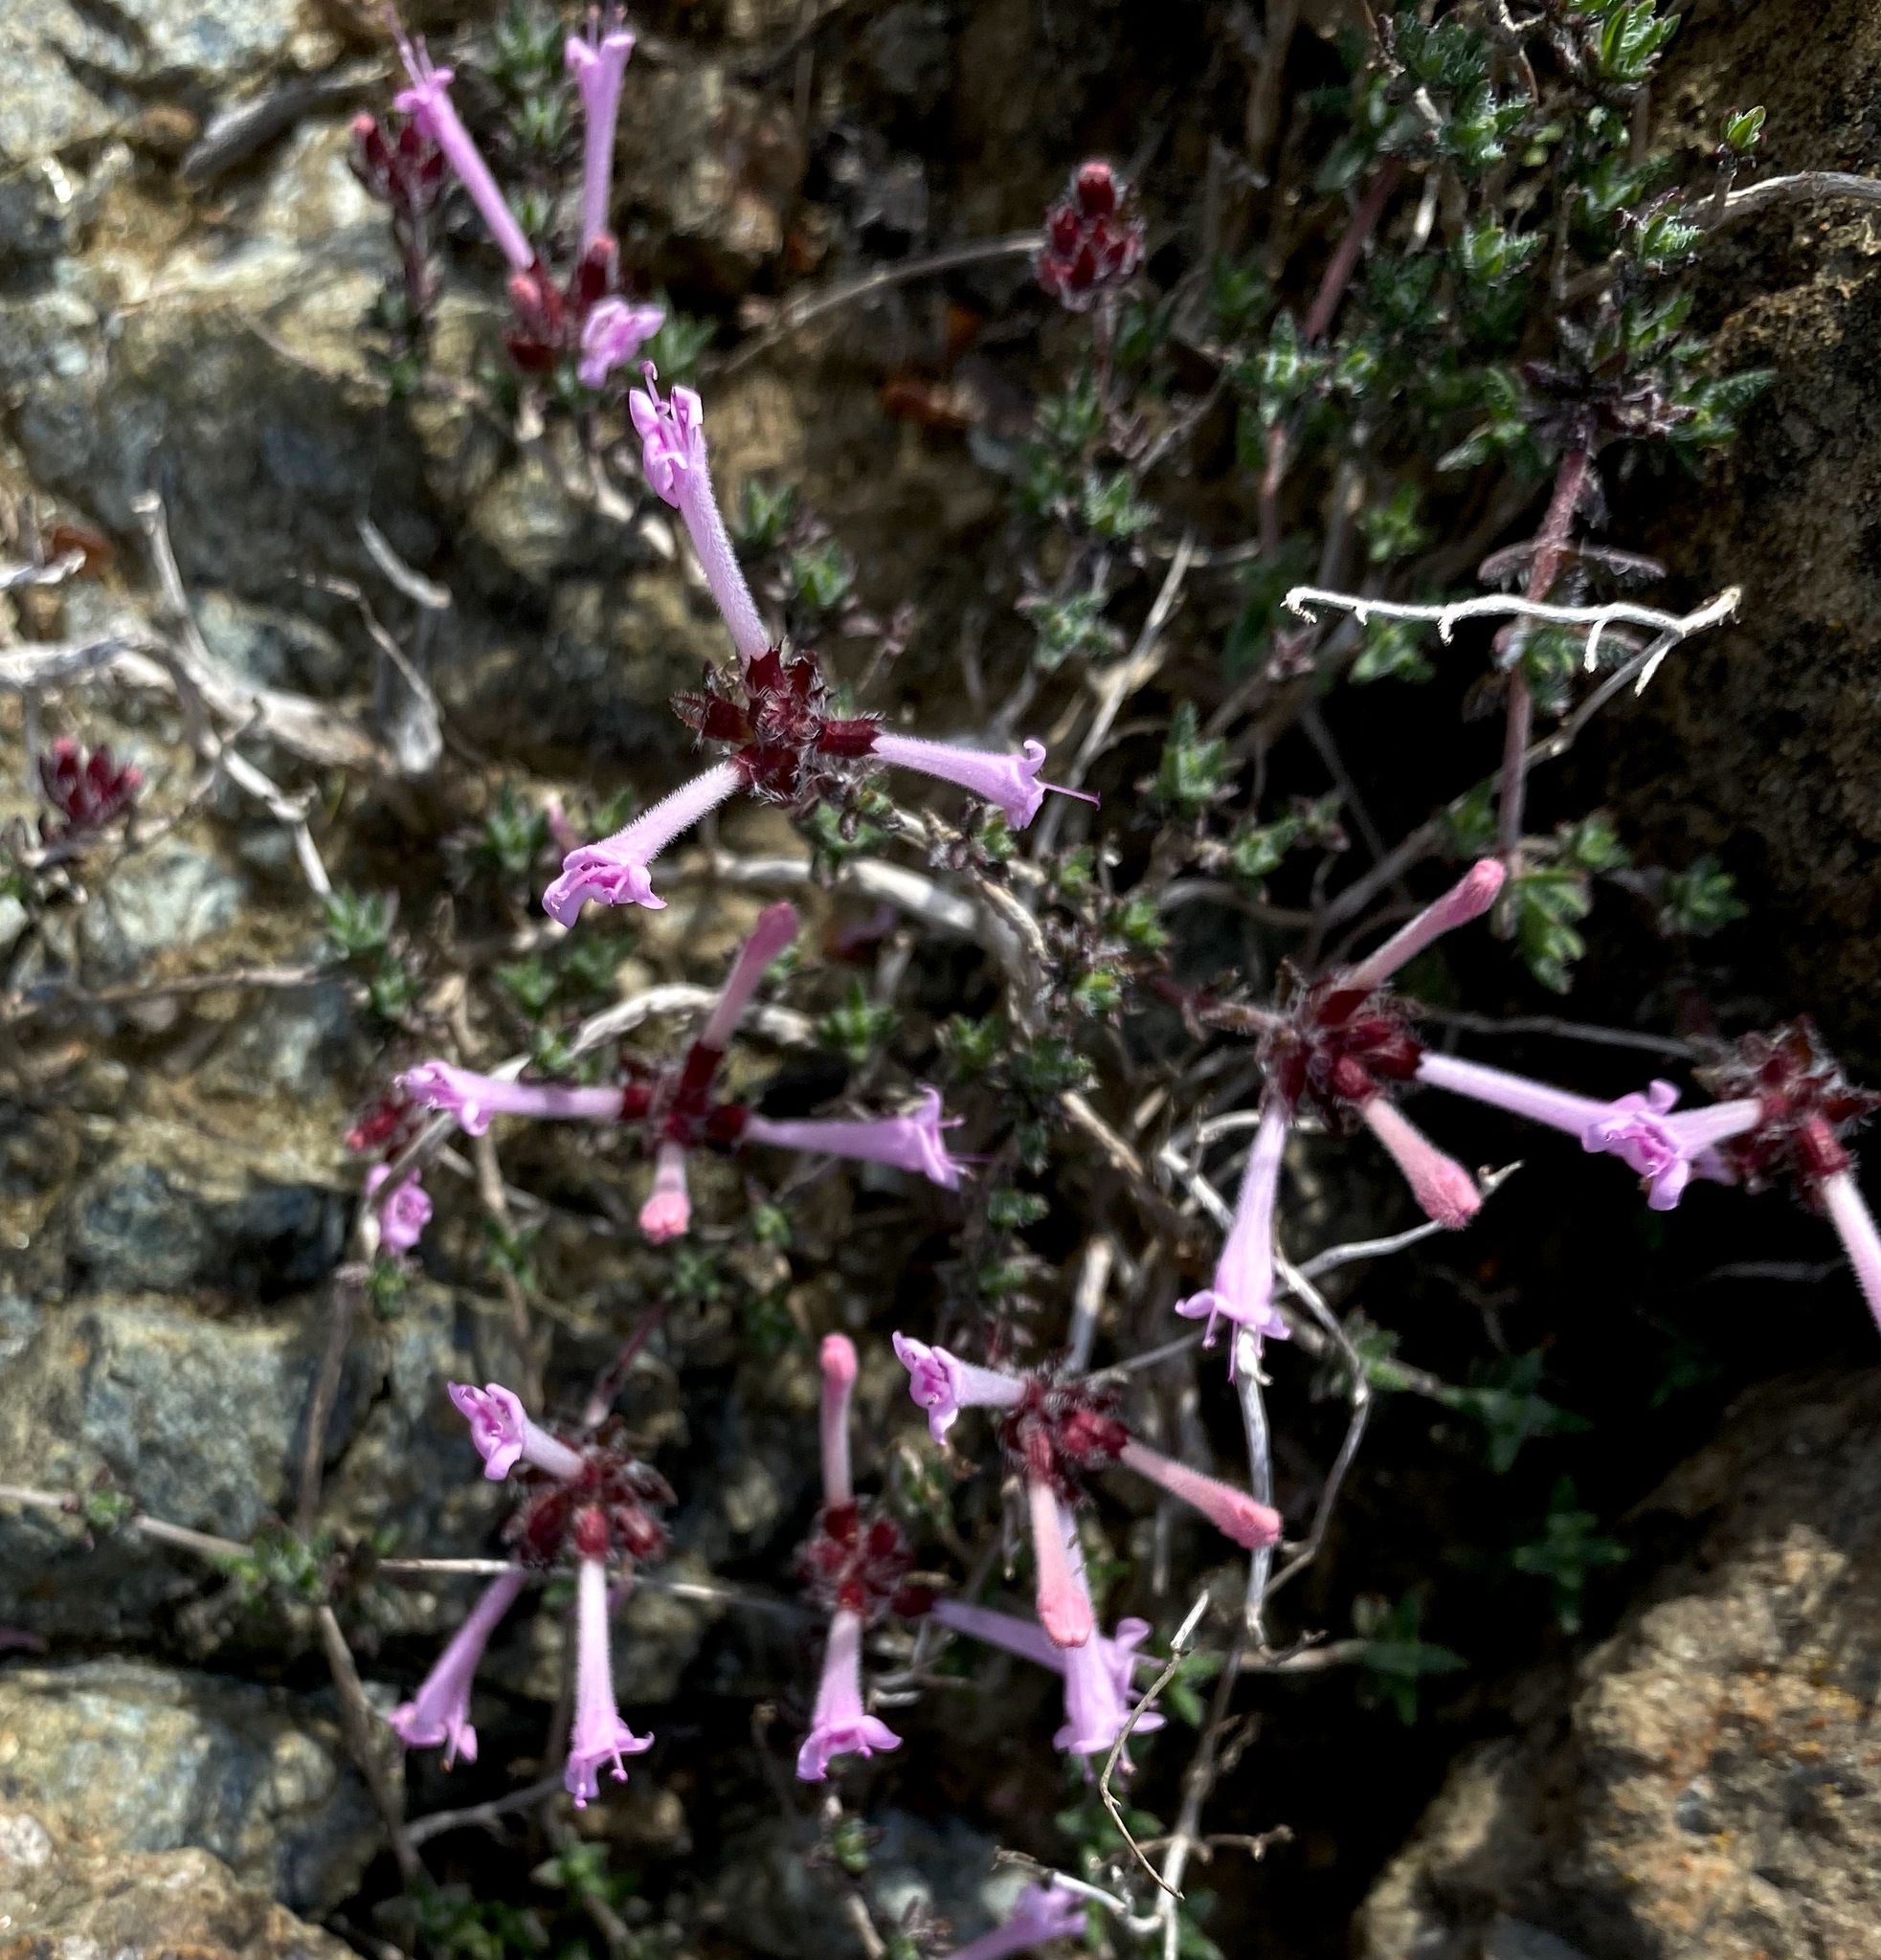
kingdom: Plantae
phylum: Tracheophyta
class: Magnoliopsida
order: Lamiales
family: Lamiaceae
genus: Thymus
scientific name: Thymus integer
